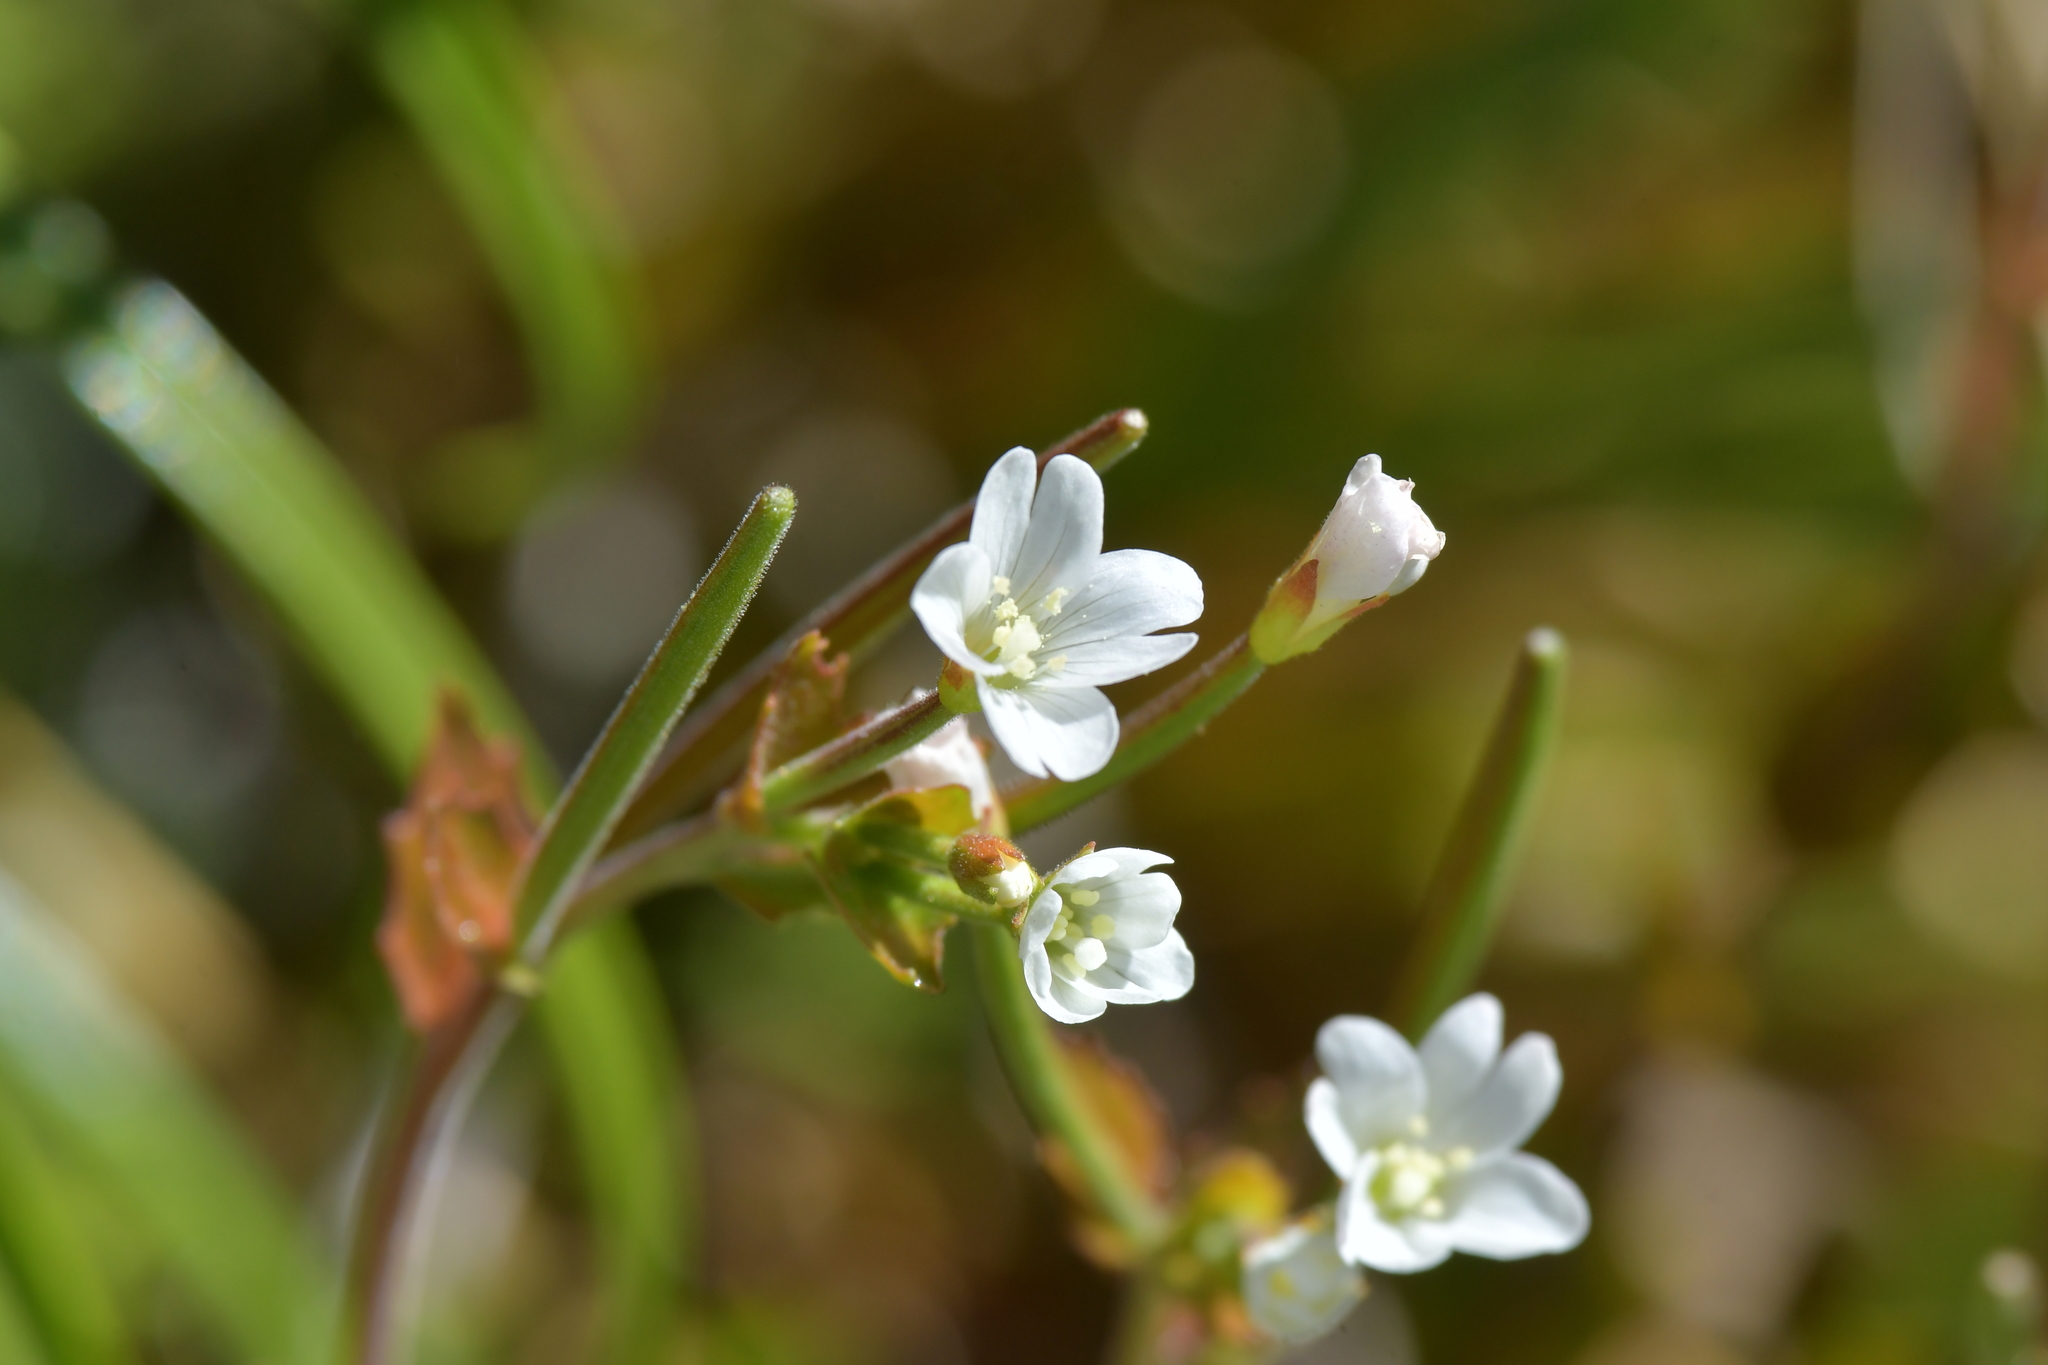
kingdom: Plantae
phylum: Tracheophyta
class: Magnoliopsida
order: Myrtales
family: Onagraceae
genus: Epilobium
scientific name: Epilobium chlorifolium
